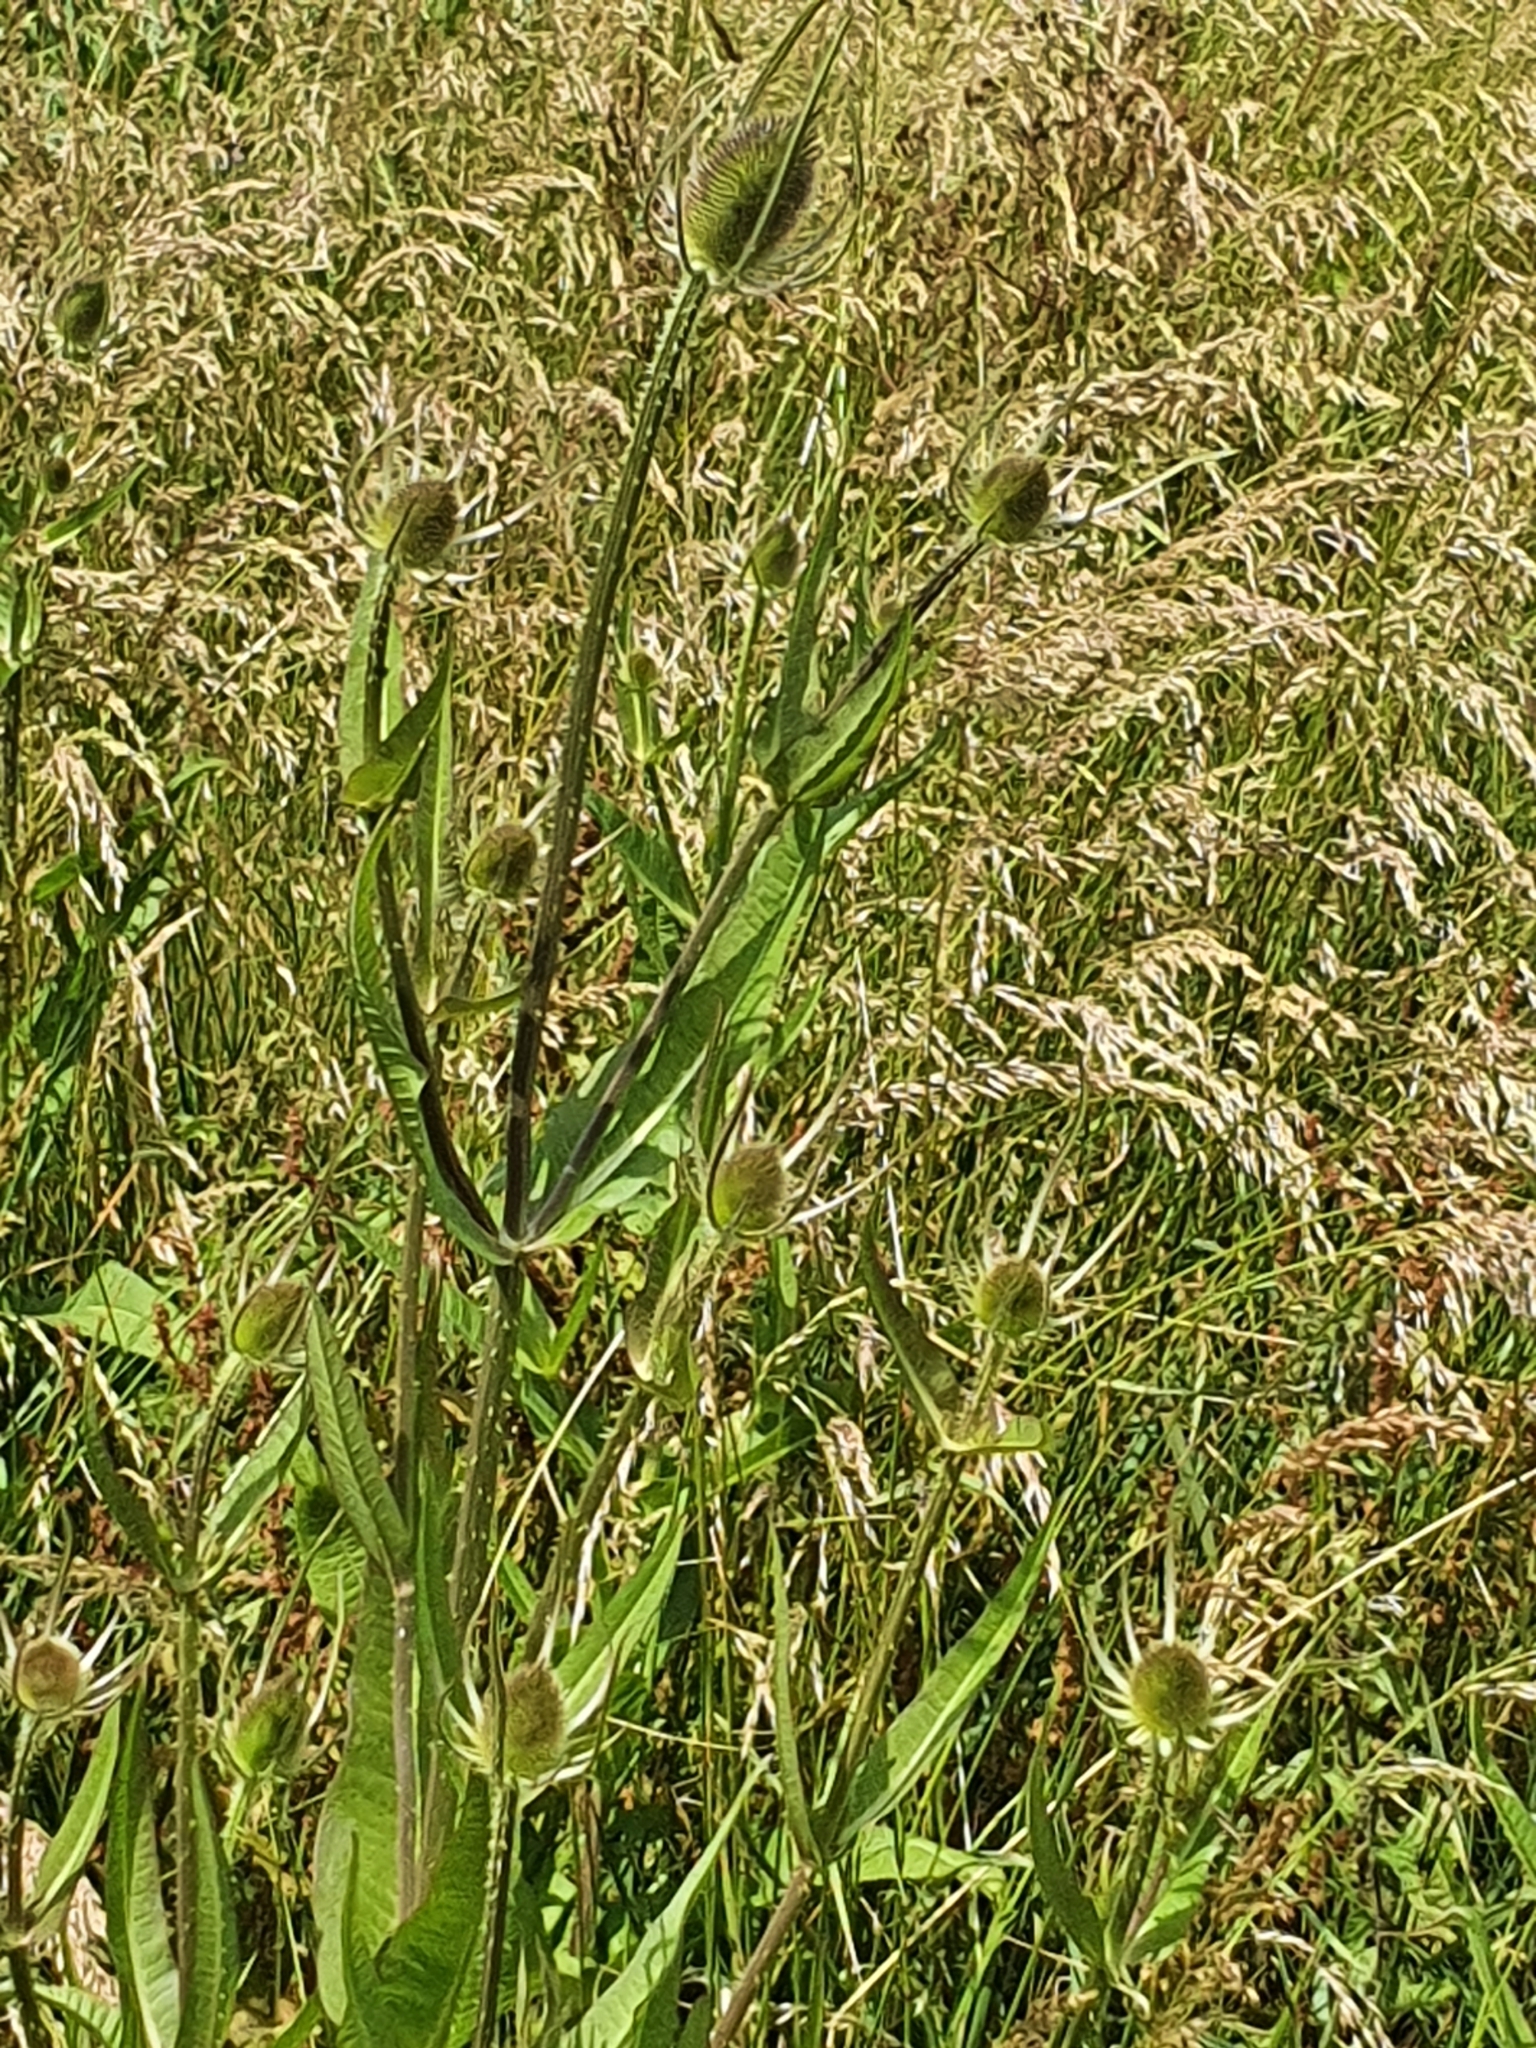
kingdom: Plantae
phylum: Tracheophyta
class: Magnoliopsida
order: Dipsacales
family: Caprifoliaceae
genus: Dipsacus
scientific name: Dipsacus fullonum
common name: Teasel
